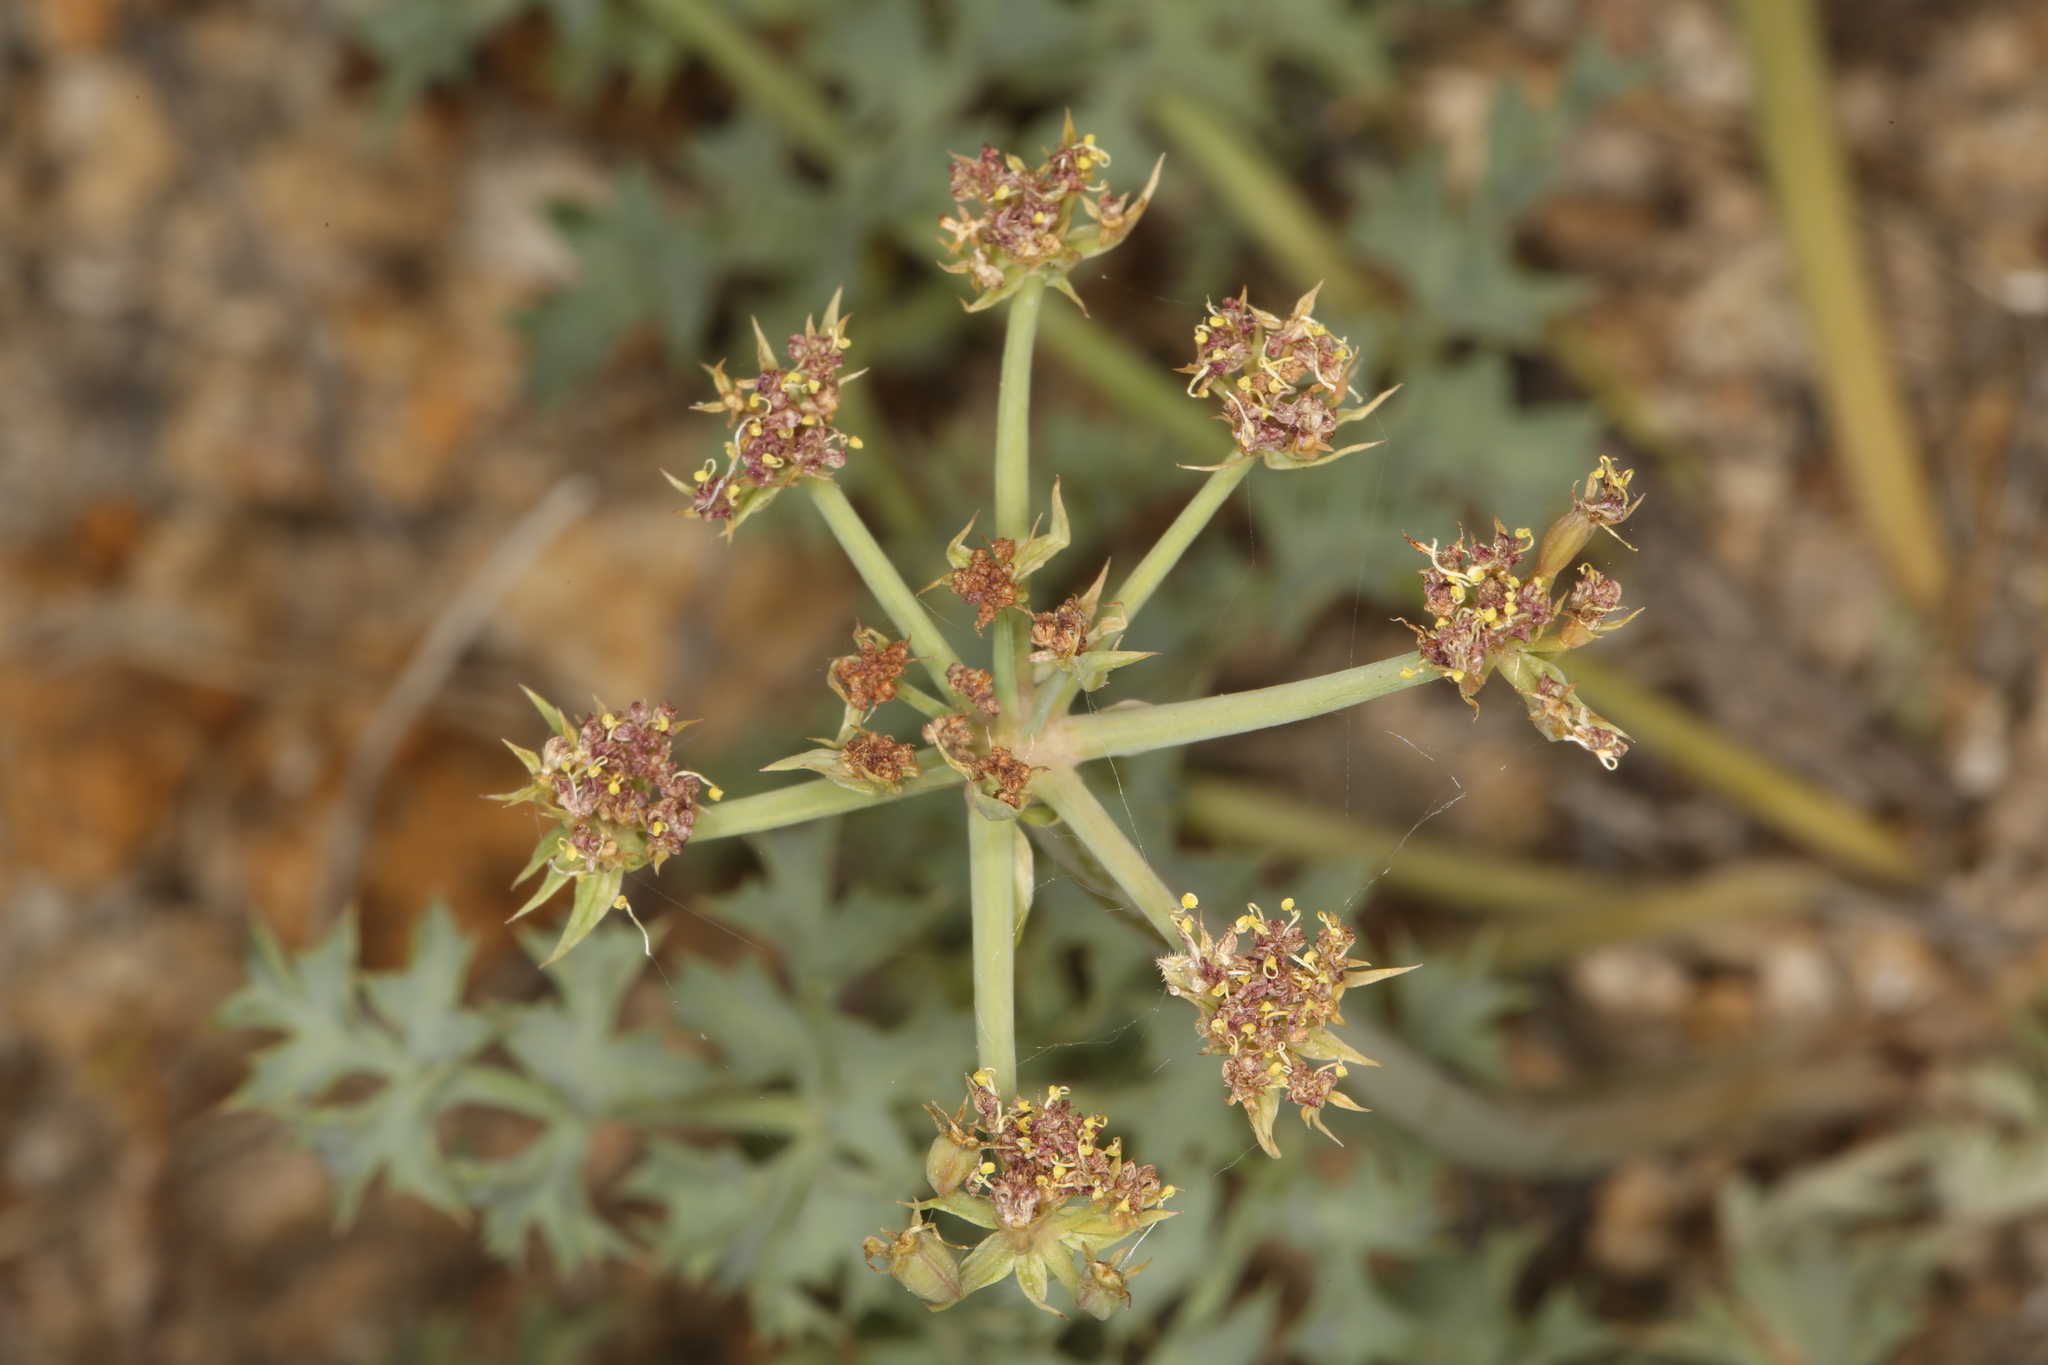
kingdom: Plantae
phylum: Tracheophyta
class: Magnoliopsida
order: Apiales
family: Apiaceae
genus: Lomatium
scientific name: Lomatium rigidum
